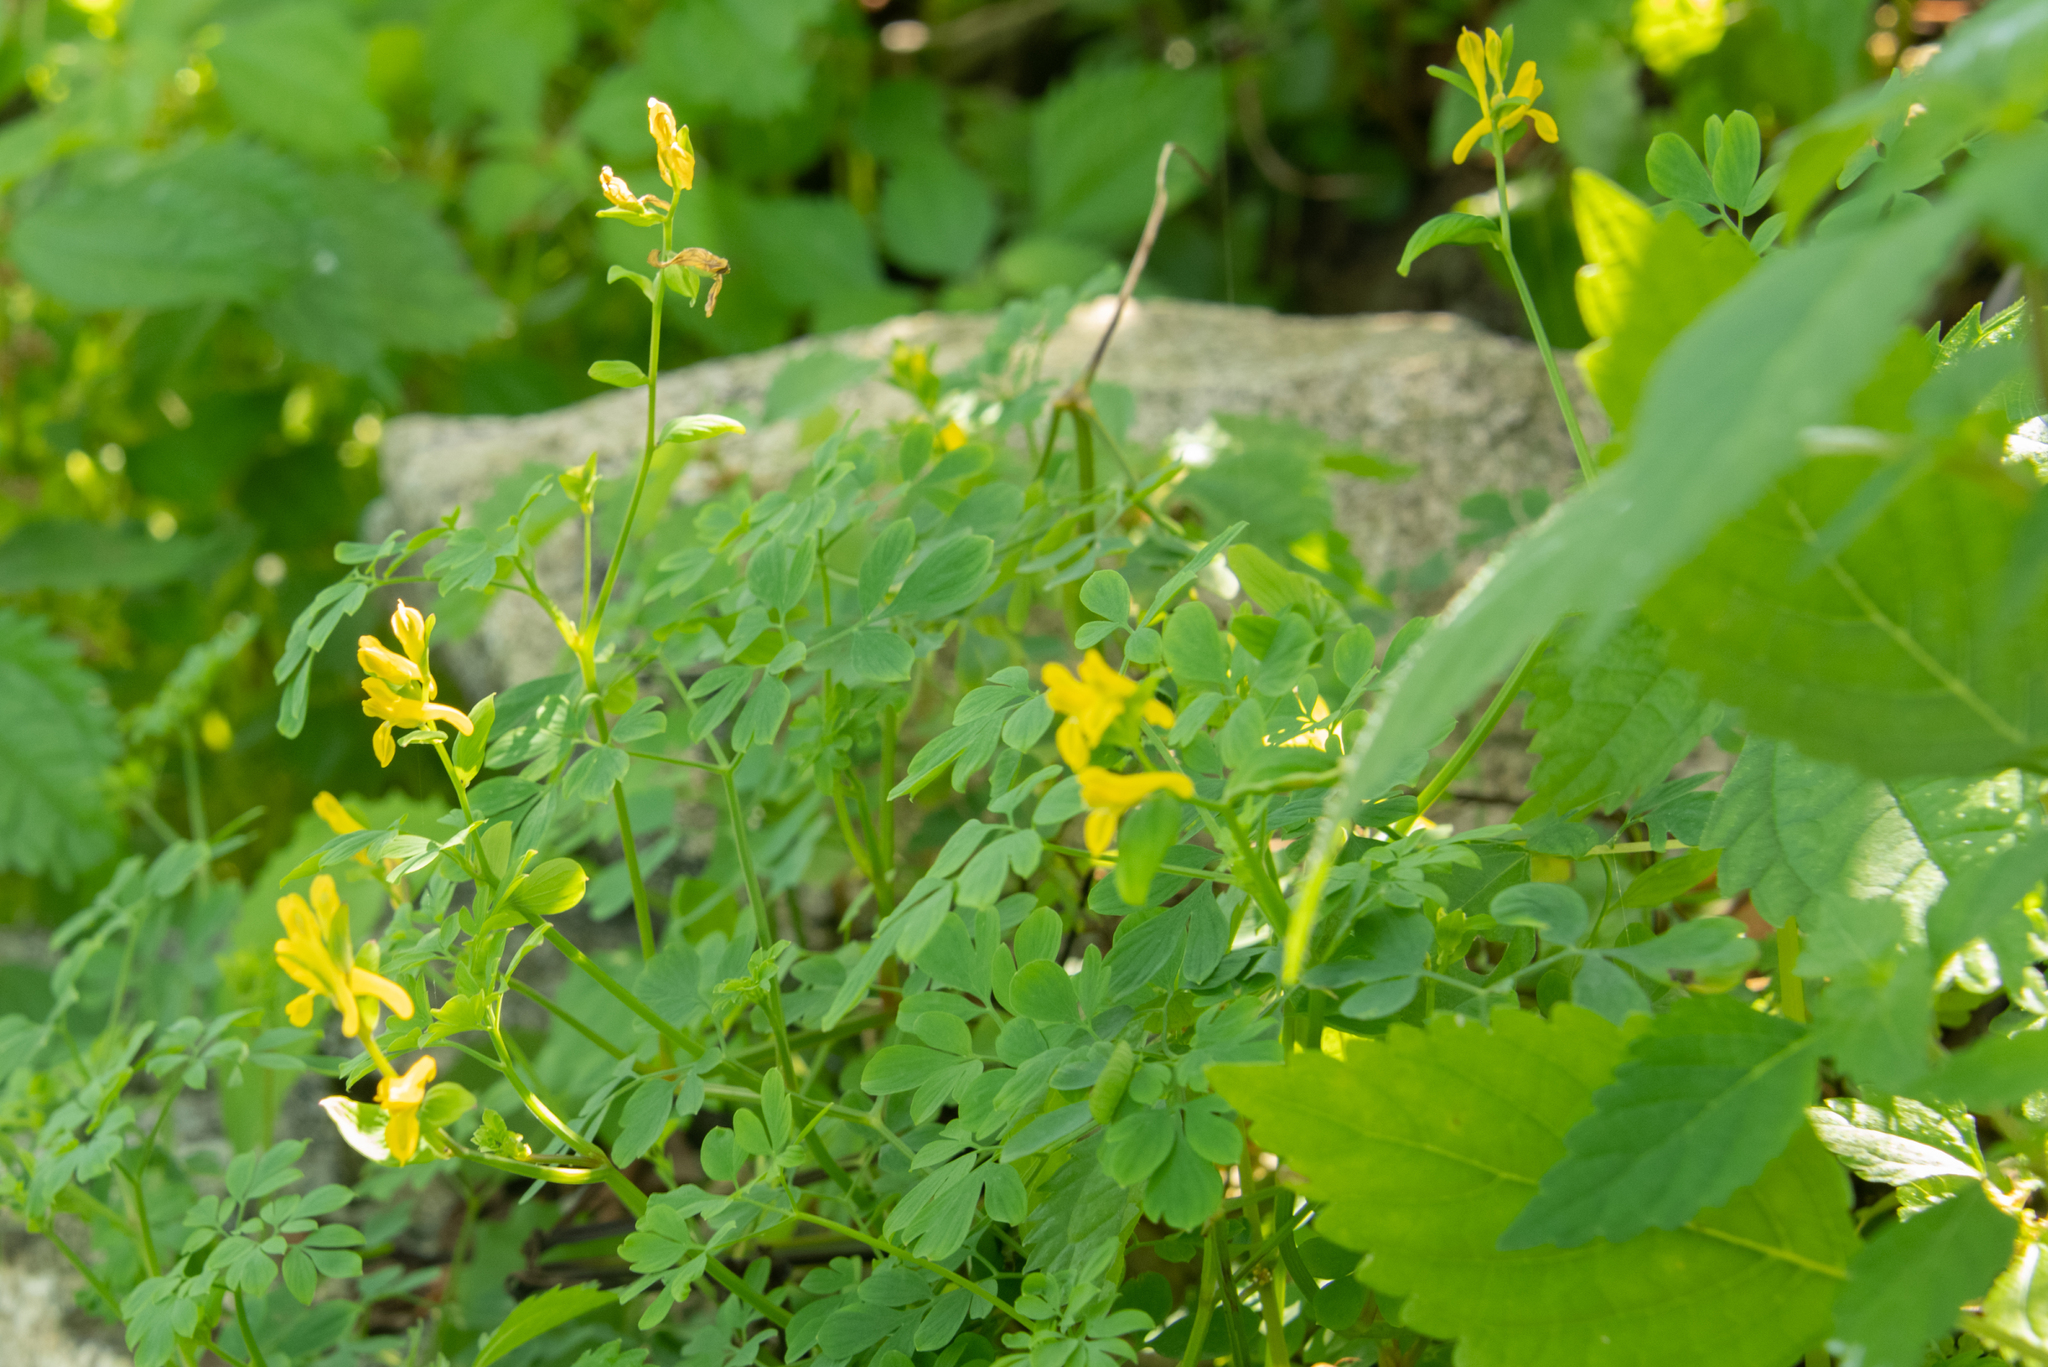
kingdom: Plantae
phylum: Tracheophyta
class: Magnoliopsida
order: Ranunculales
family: Papaveraceae
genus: Corydalis
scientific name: Corydalis ochotensis
